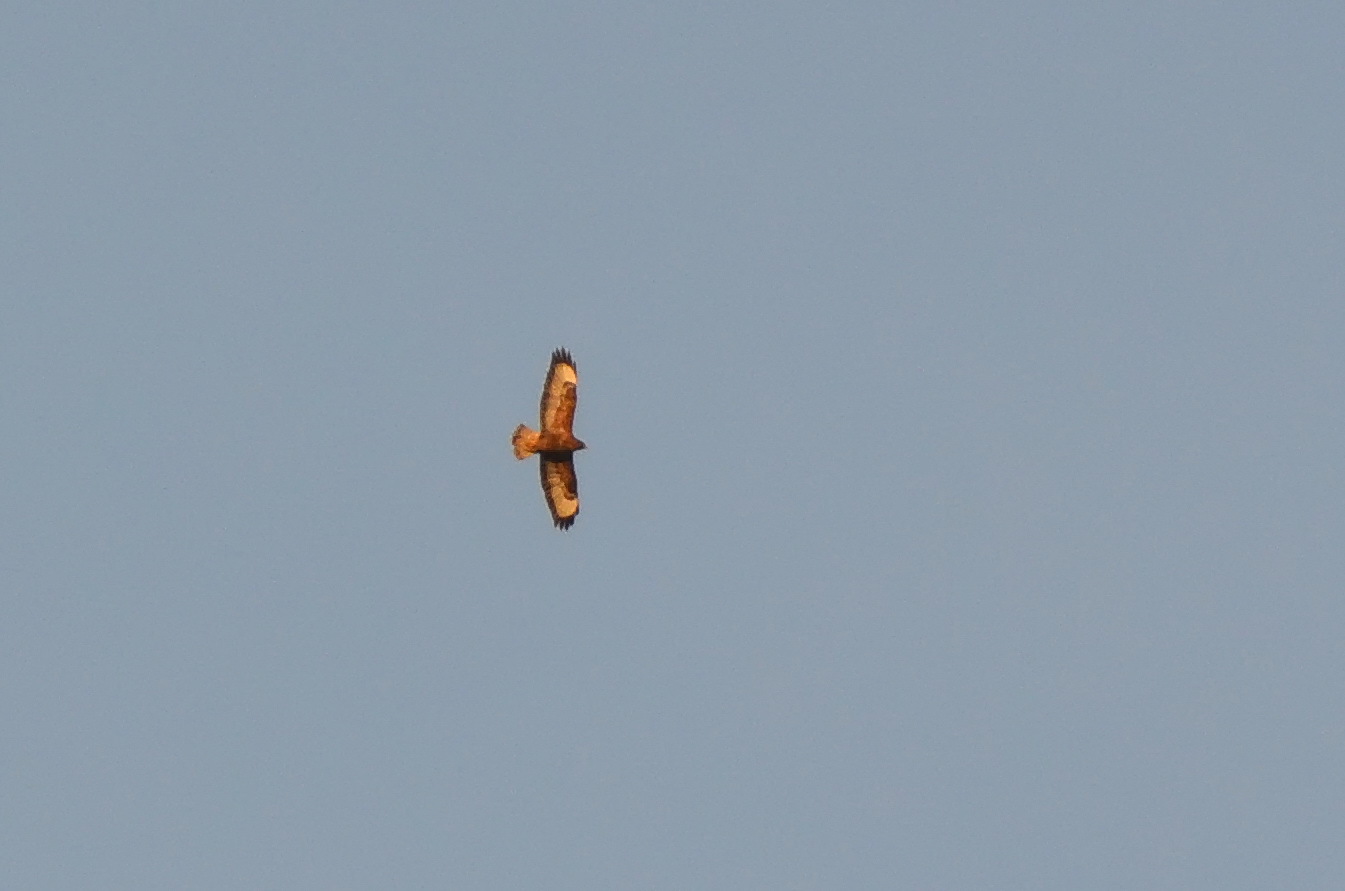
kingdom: Animalia
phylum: Chordata
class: Aves
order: Accipitriformes
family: Accipitridae
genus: Buteo
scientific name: Buteo buteo
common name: Common buzzard
